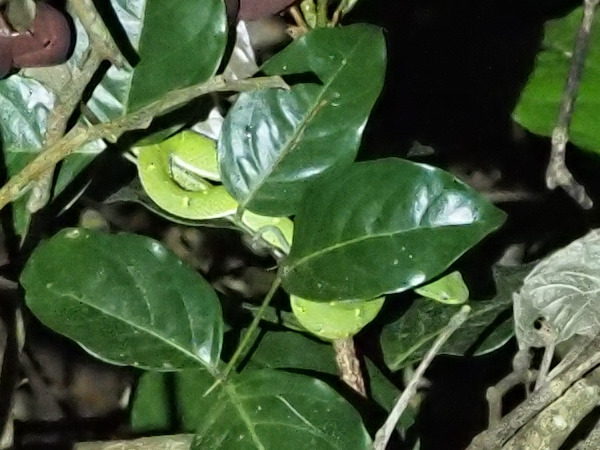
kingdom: Animalia
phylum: Chordata
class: Squamata
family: Viperidae
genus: Bothriechis
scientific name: Bothriechis lateralis
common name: Coffee palm viper
